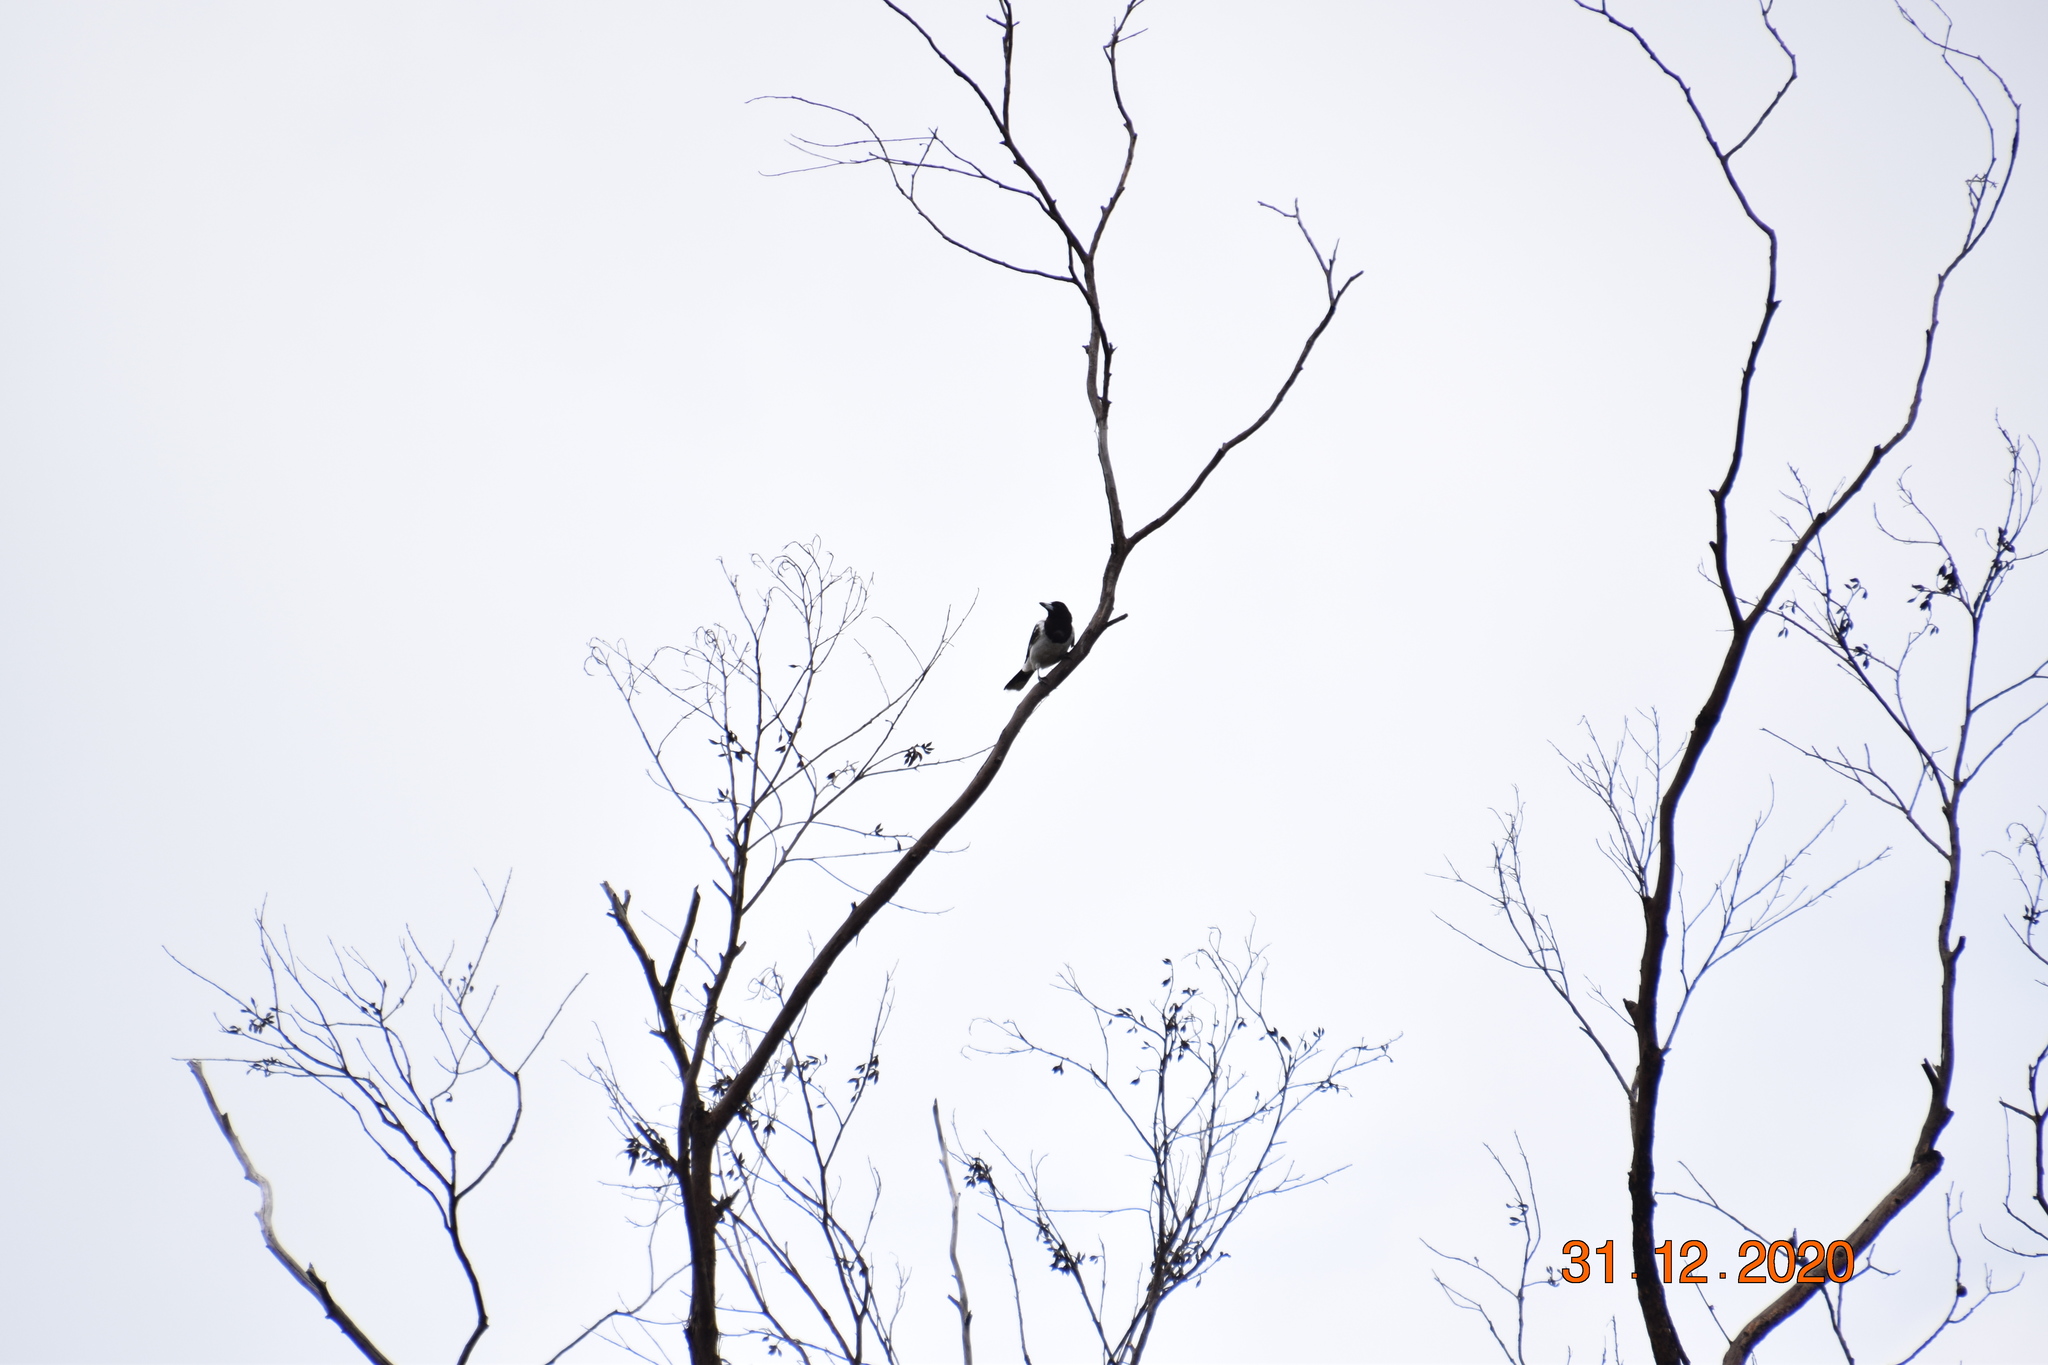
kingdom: Animalia
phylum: Chordata
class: Aves
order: Passeriformes
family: Cracticidae
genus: Cracticus
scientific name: Cracticus nigrogularis
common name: Pied butcherbird
